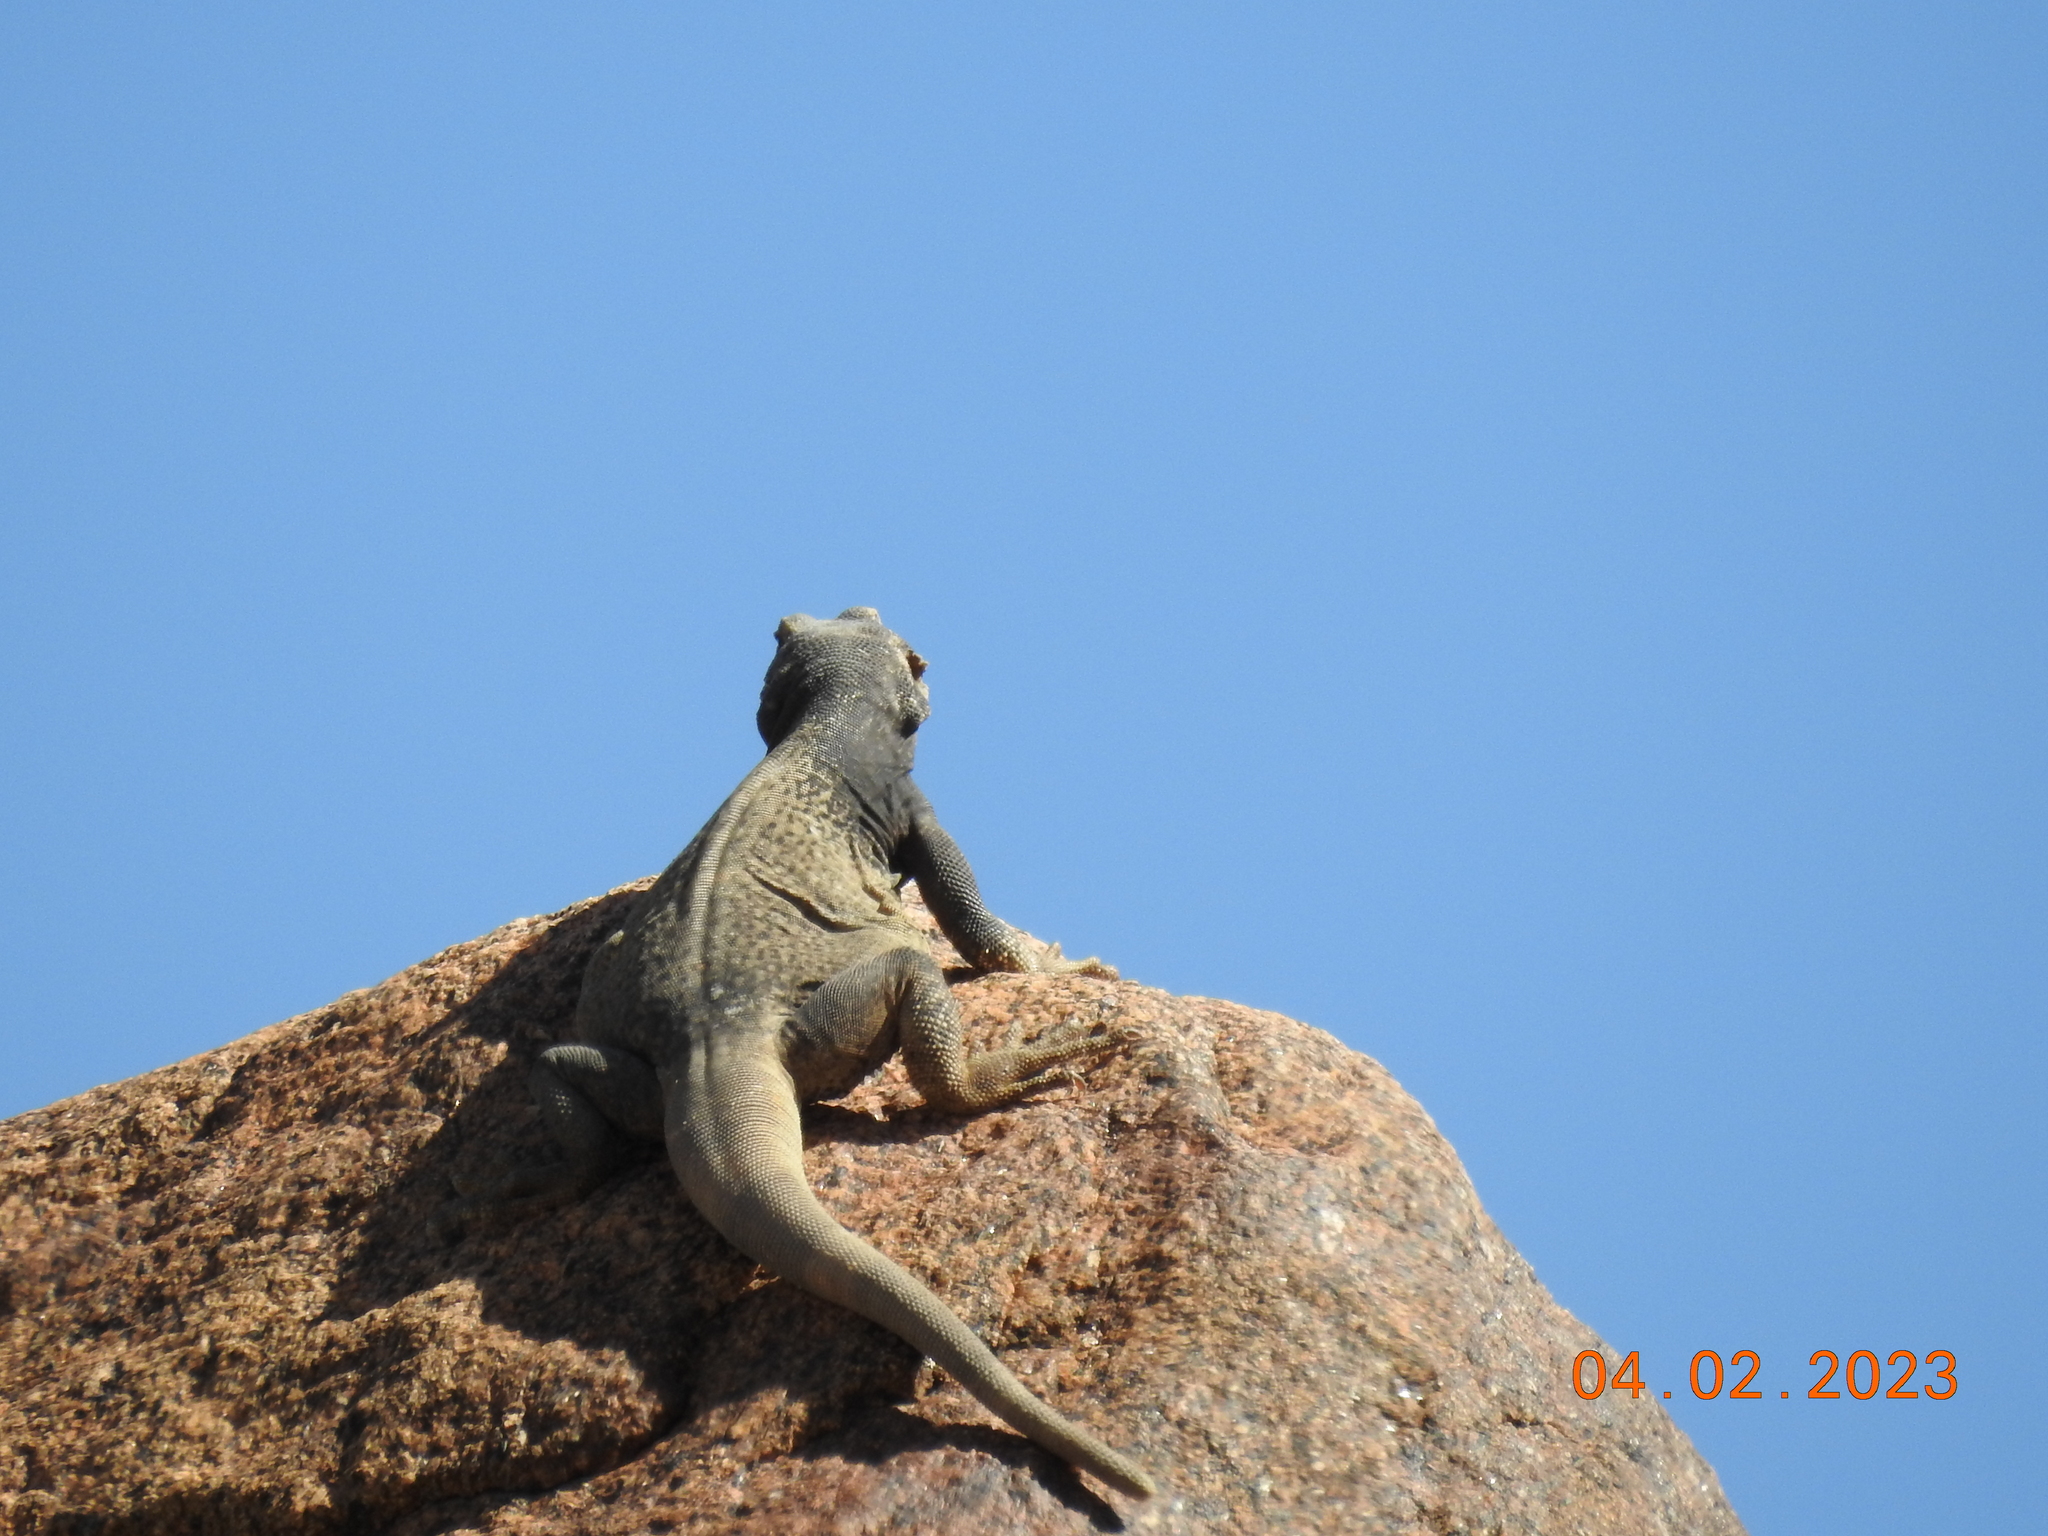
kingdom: Animalia
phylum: Chordata
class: Squamata
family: Iguanidae
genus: Sauromalus
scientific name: Sauromalus ater
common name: Northern chuckwalla
